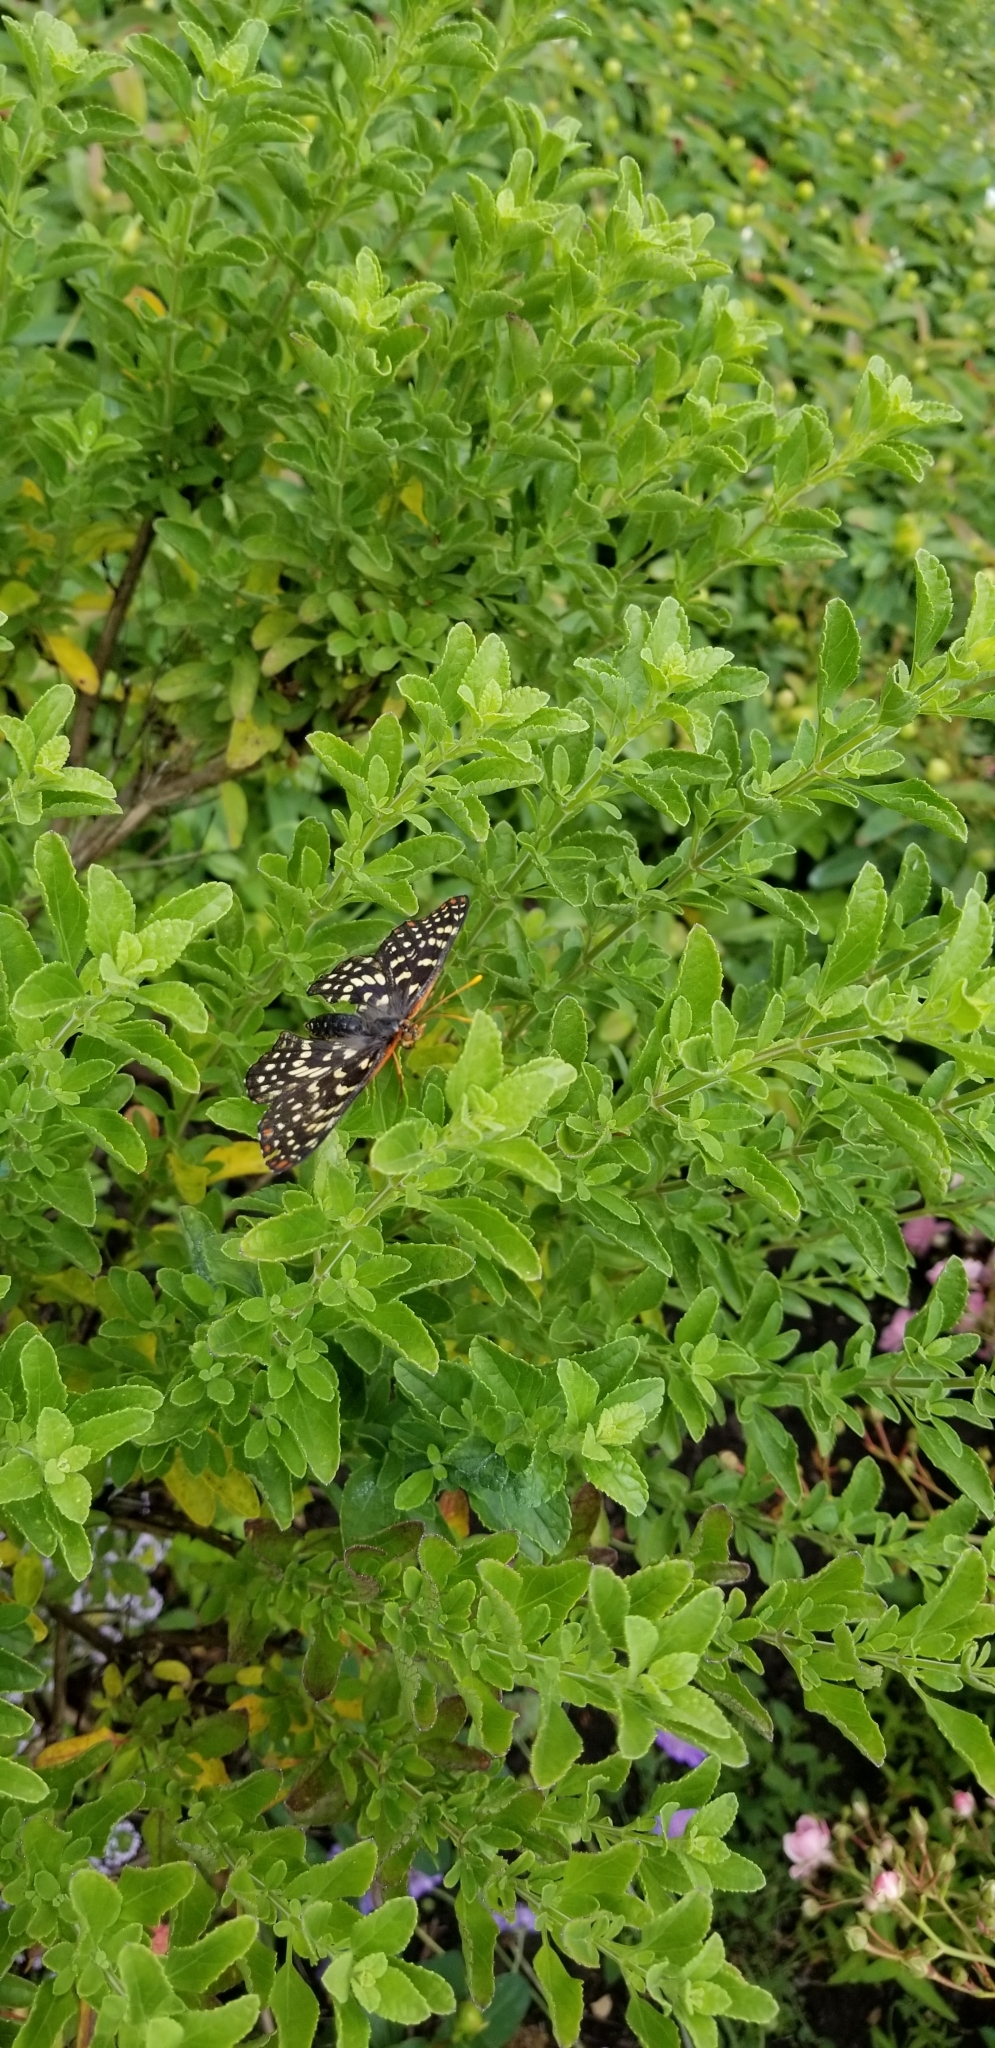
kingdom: Animalia
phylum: Arthropoda
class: Insecta
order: Lepidoptera
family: Nymphalidae
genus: Occidryas
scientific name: Occidryas chalcedona
